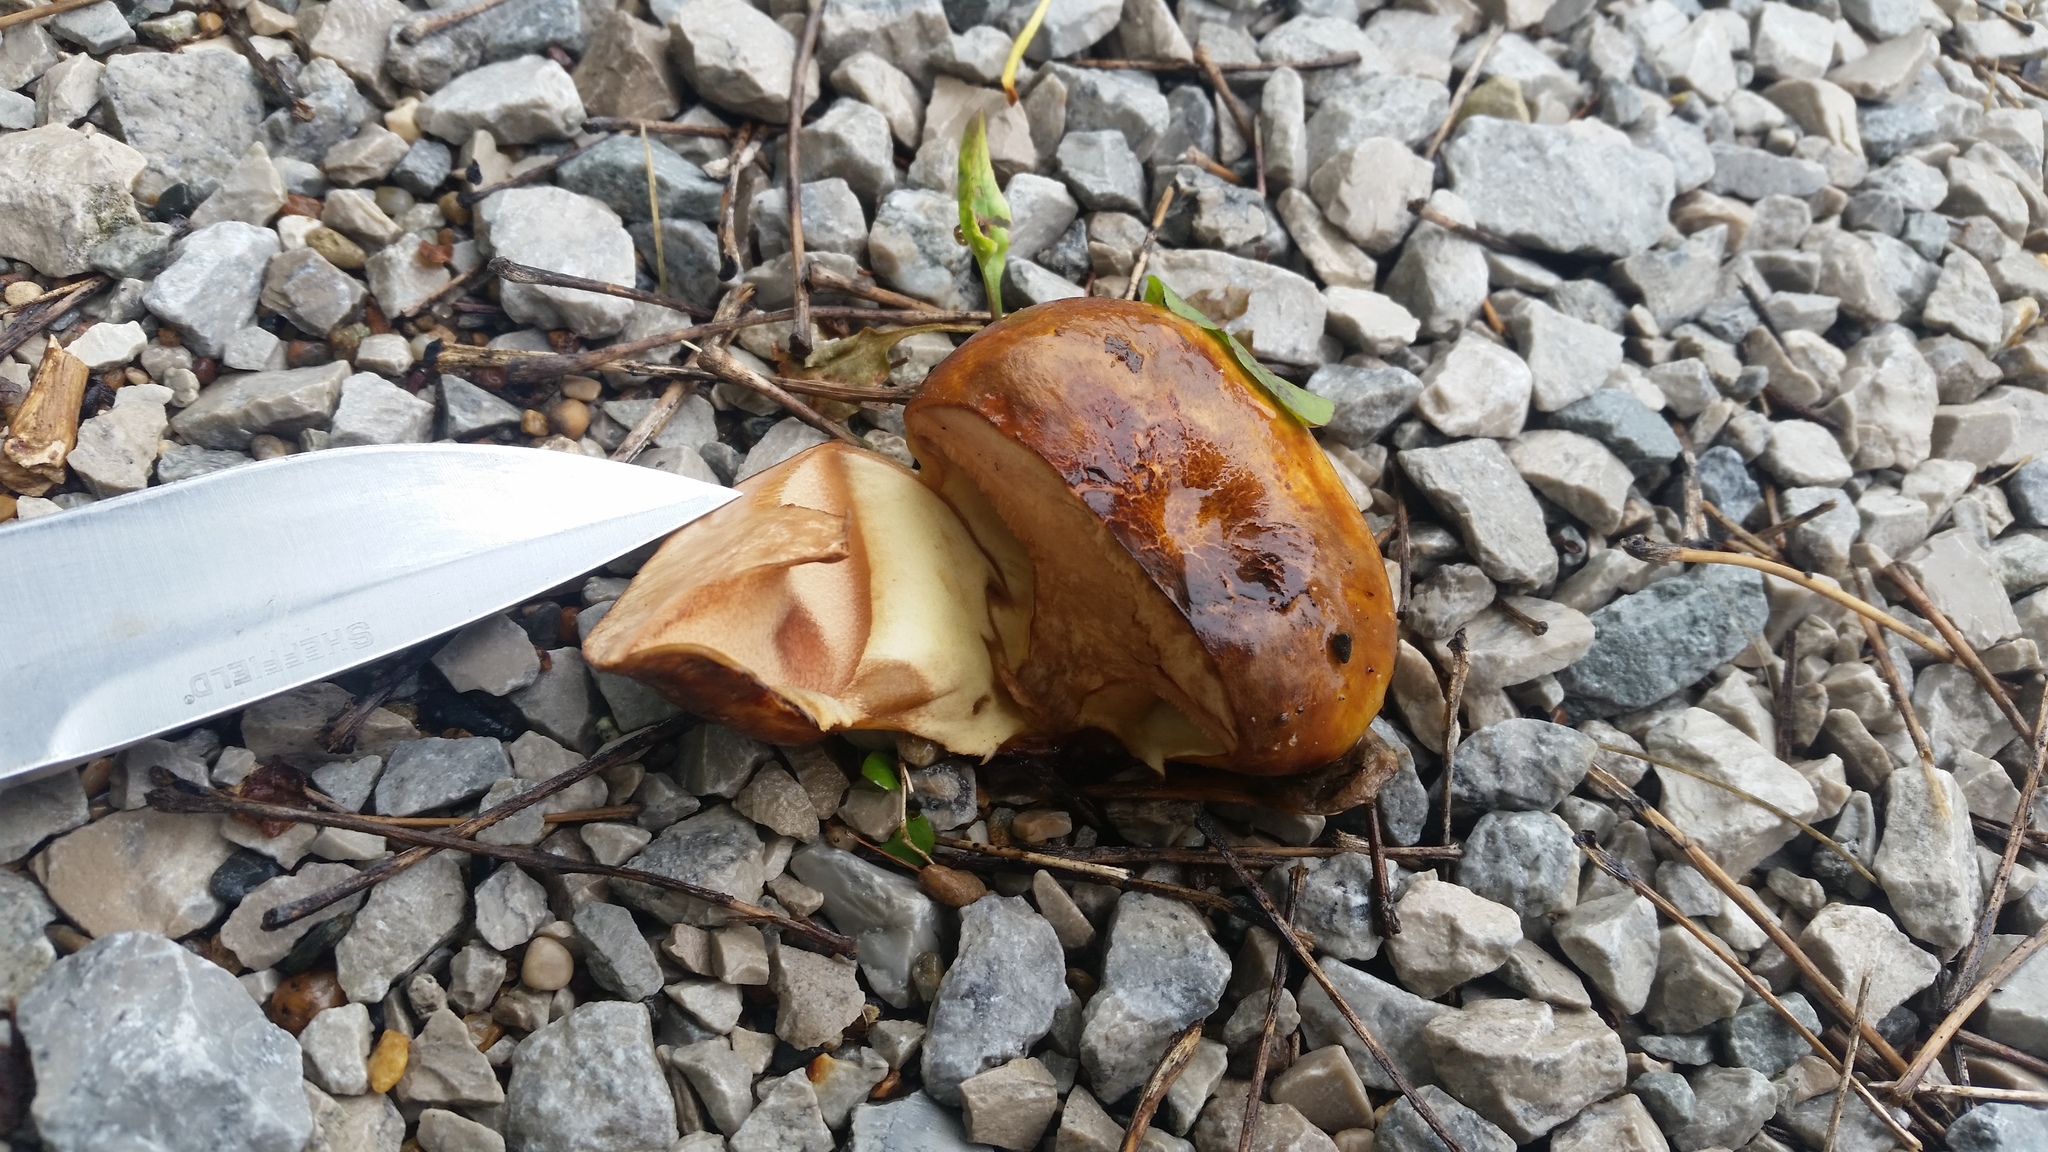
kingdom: Fungi
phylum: Basidiomycota
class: Agaricomycetes
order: Boletales
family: Paxillaceae
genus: Paragyrodon
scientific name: Paragyrodon sphaerosporus
